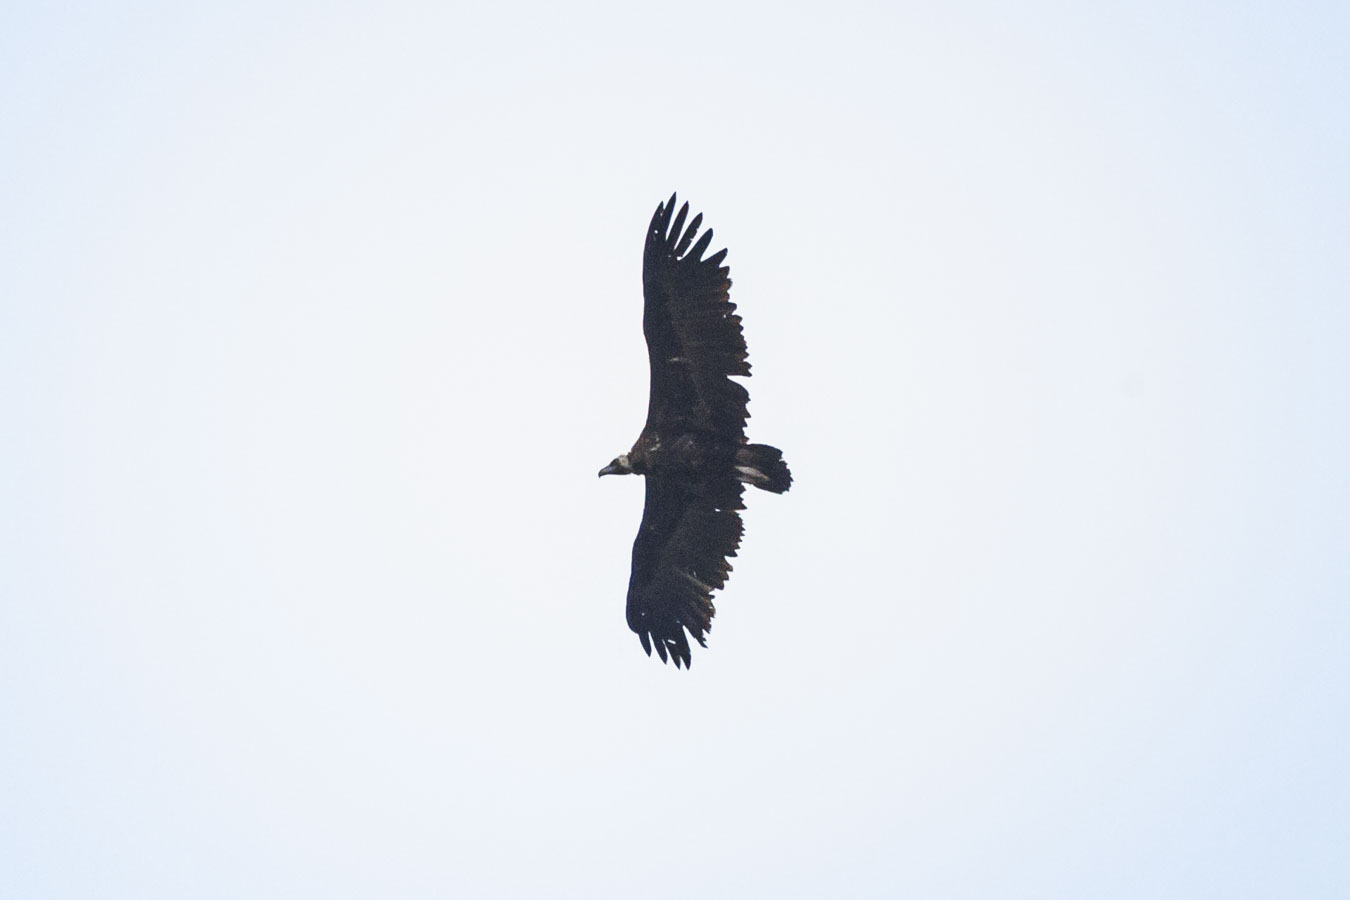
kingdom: Animalia
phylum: Chordata
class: Aves
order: Accipitriformes
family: Accipitridae
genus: Aegypius
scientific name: Aegypius monachus
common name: Cinereous vulture
